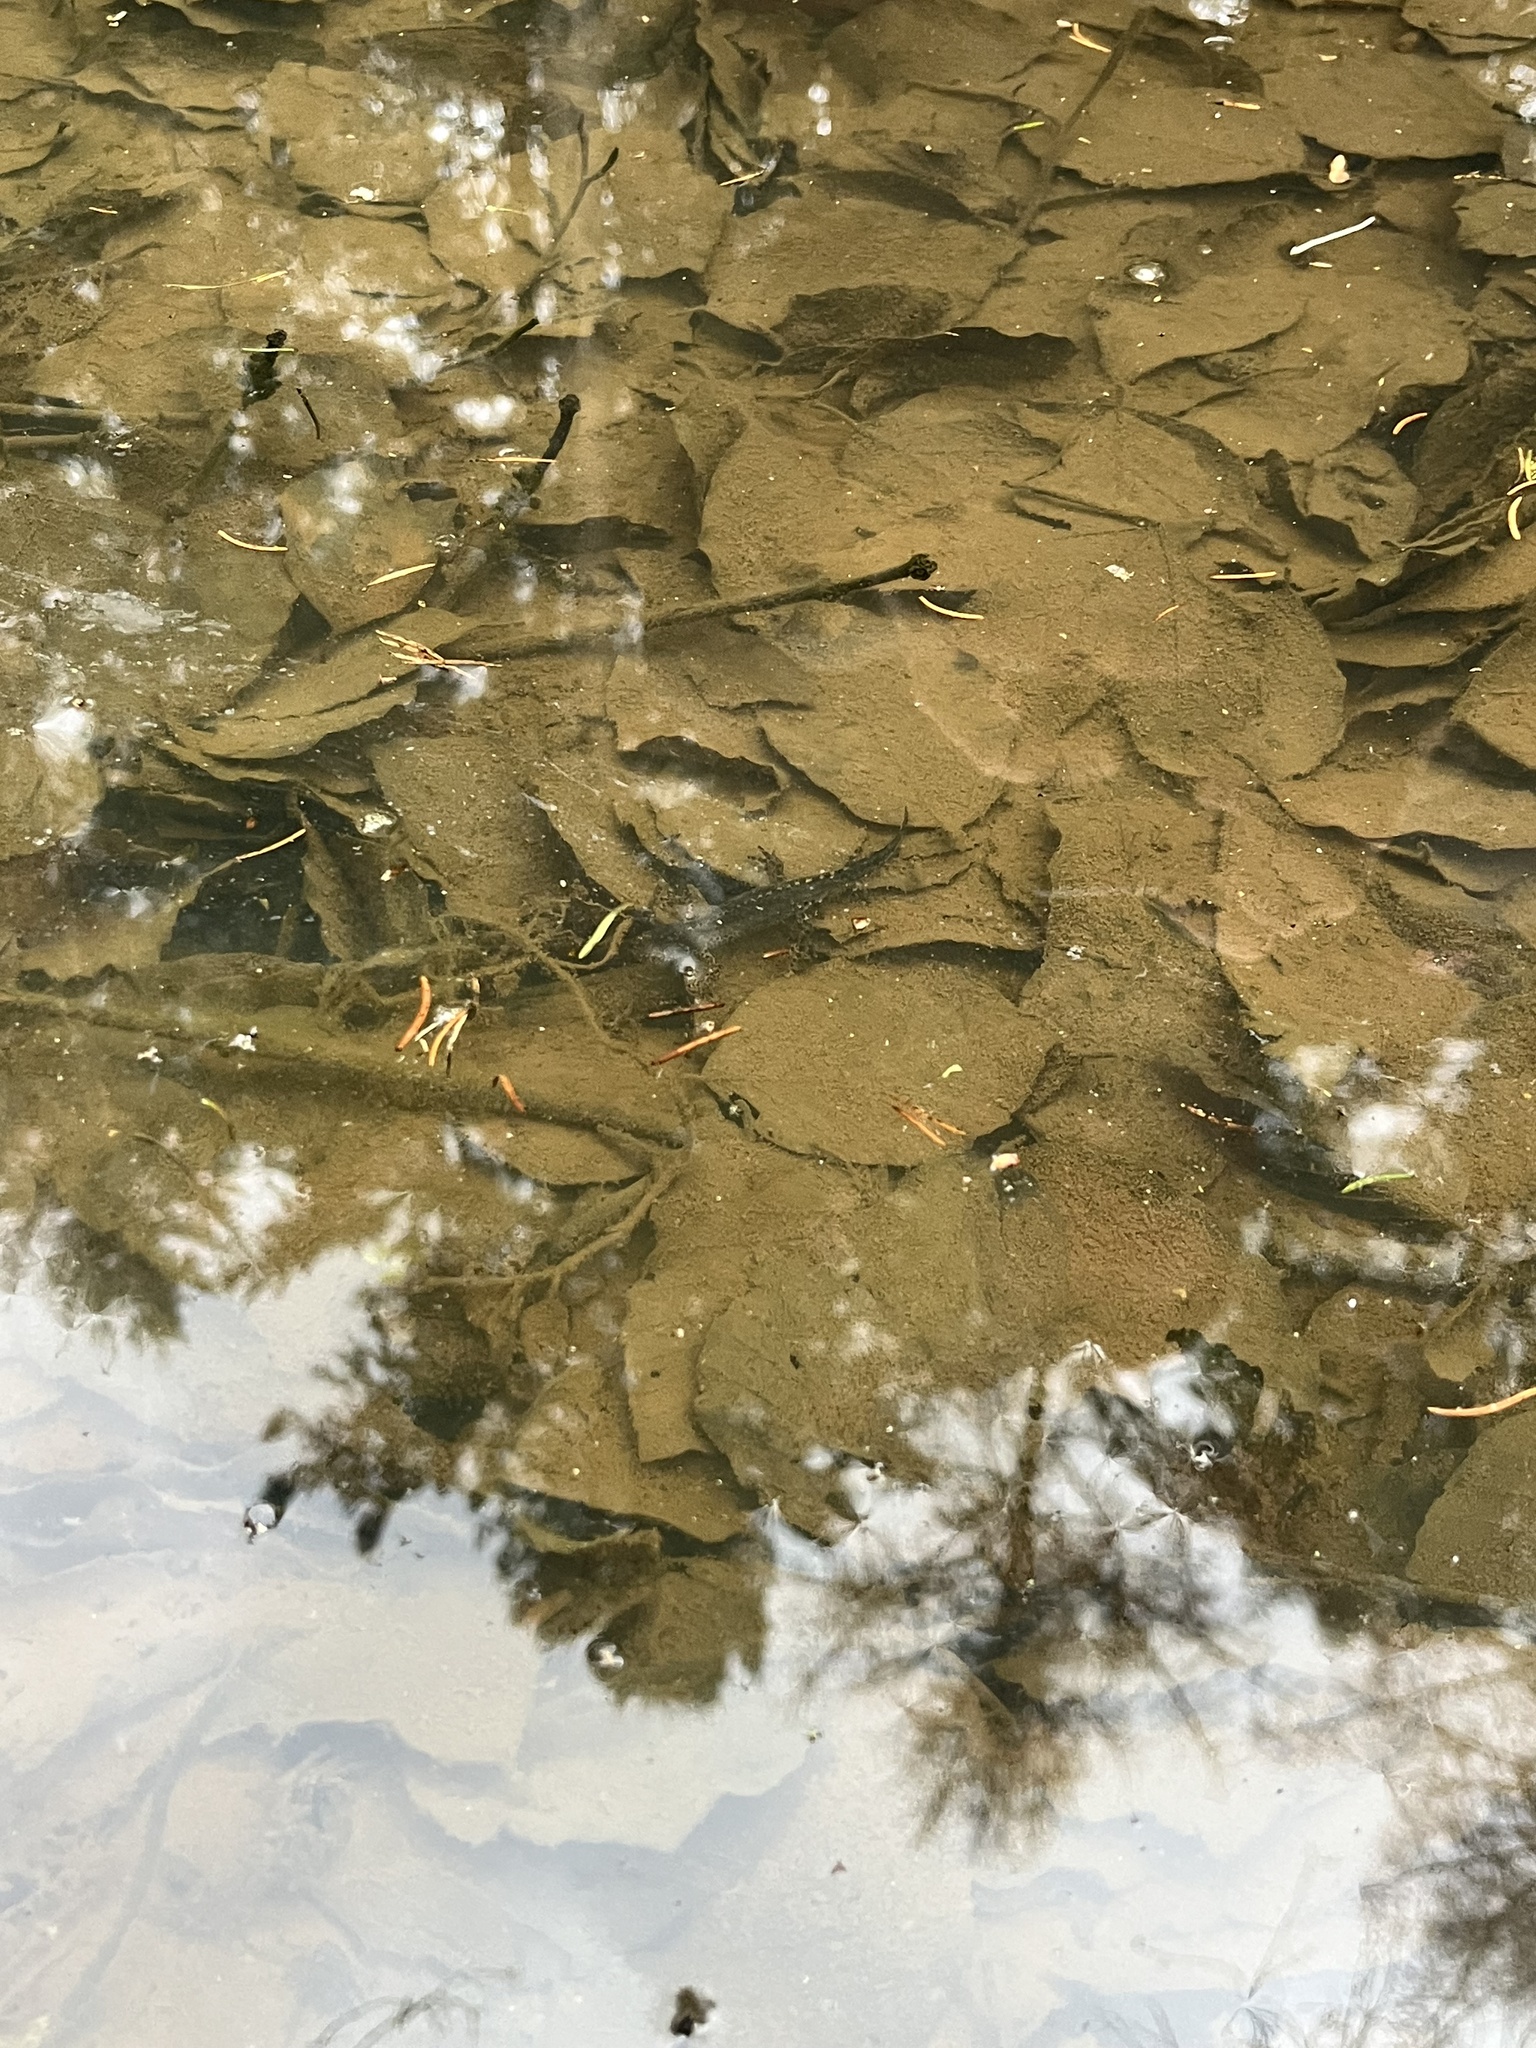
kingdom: Animalia
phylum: Chordata
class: Amphibia
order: Caudata
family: Salamandridae
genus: Ichthyosaura
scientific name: Ichthyosaura alpestris
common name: Alpine newt
